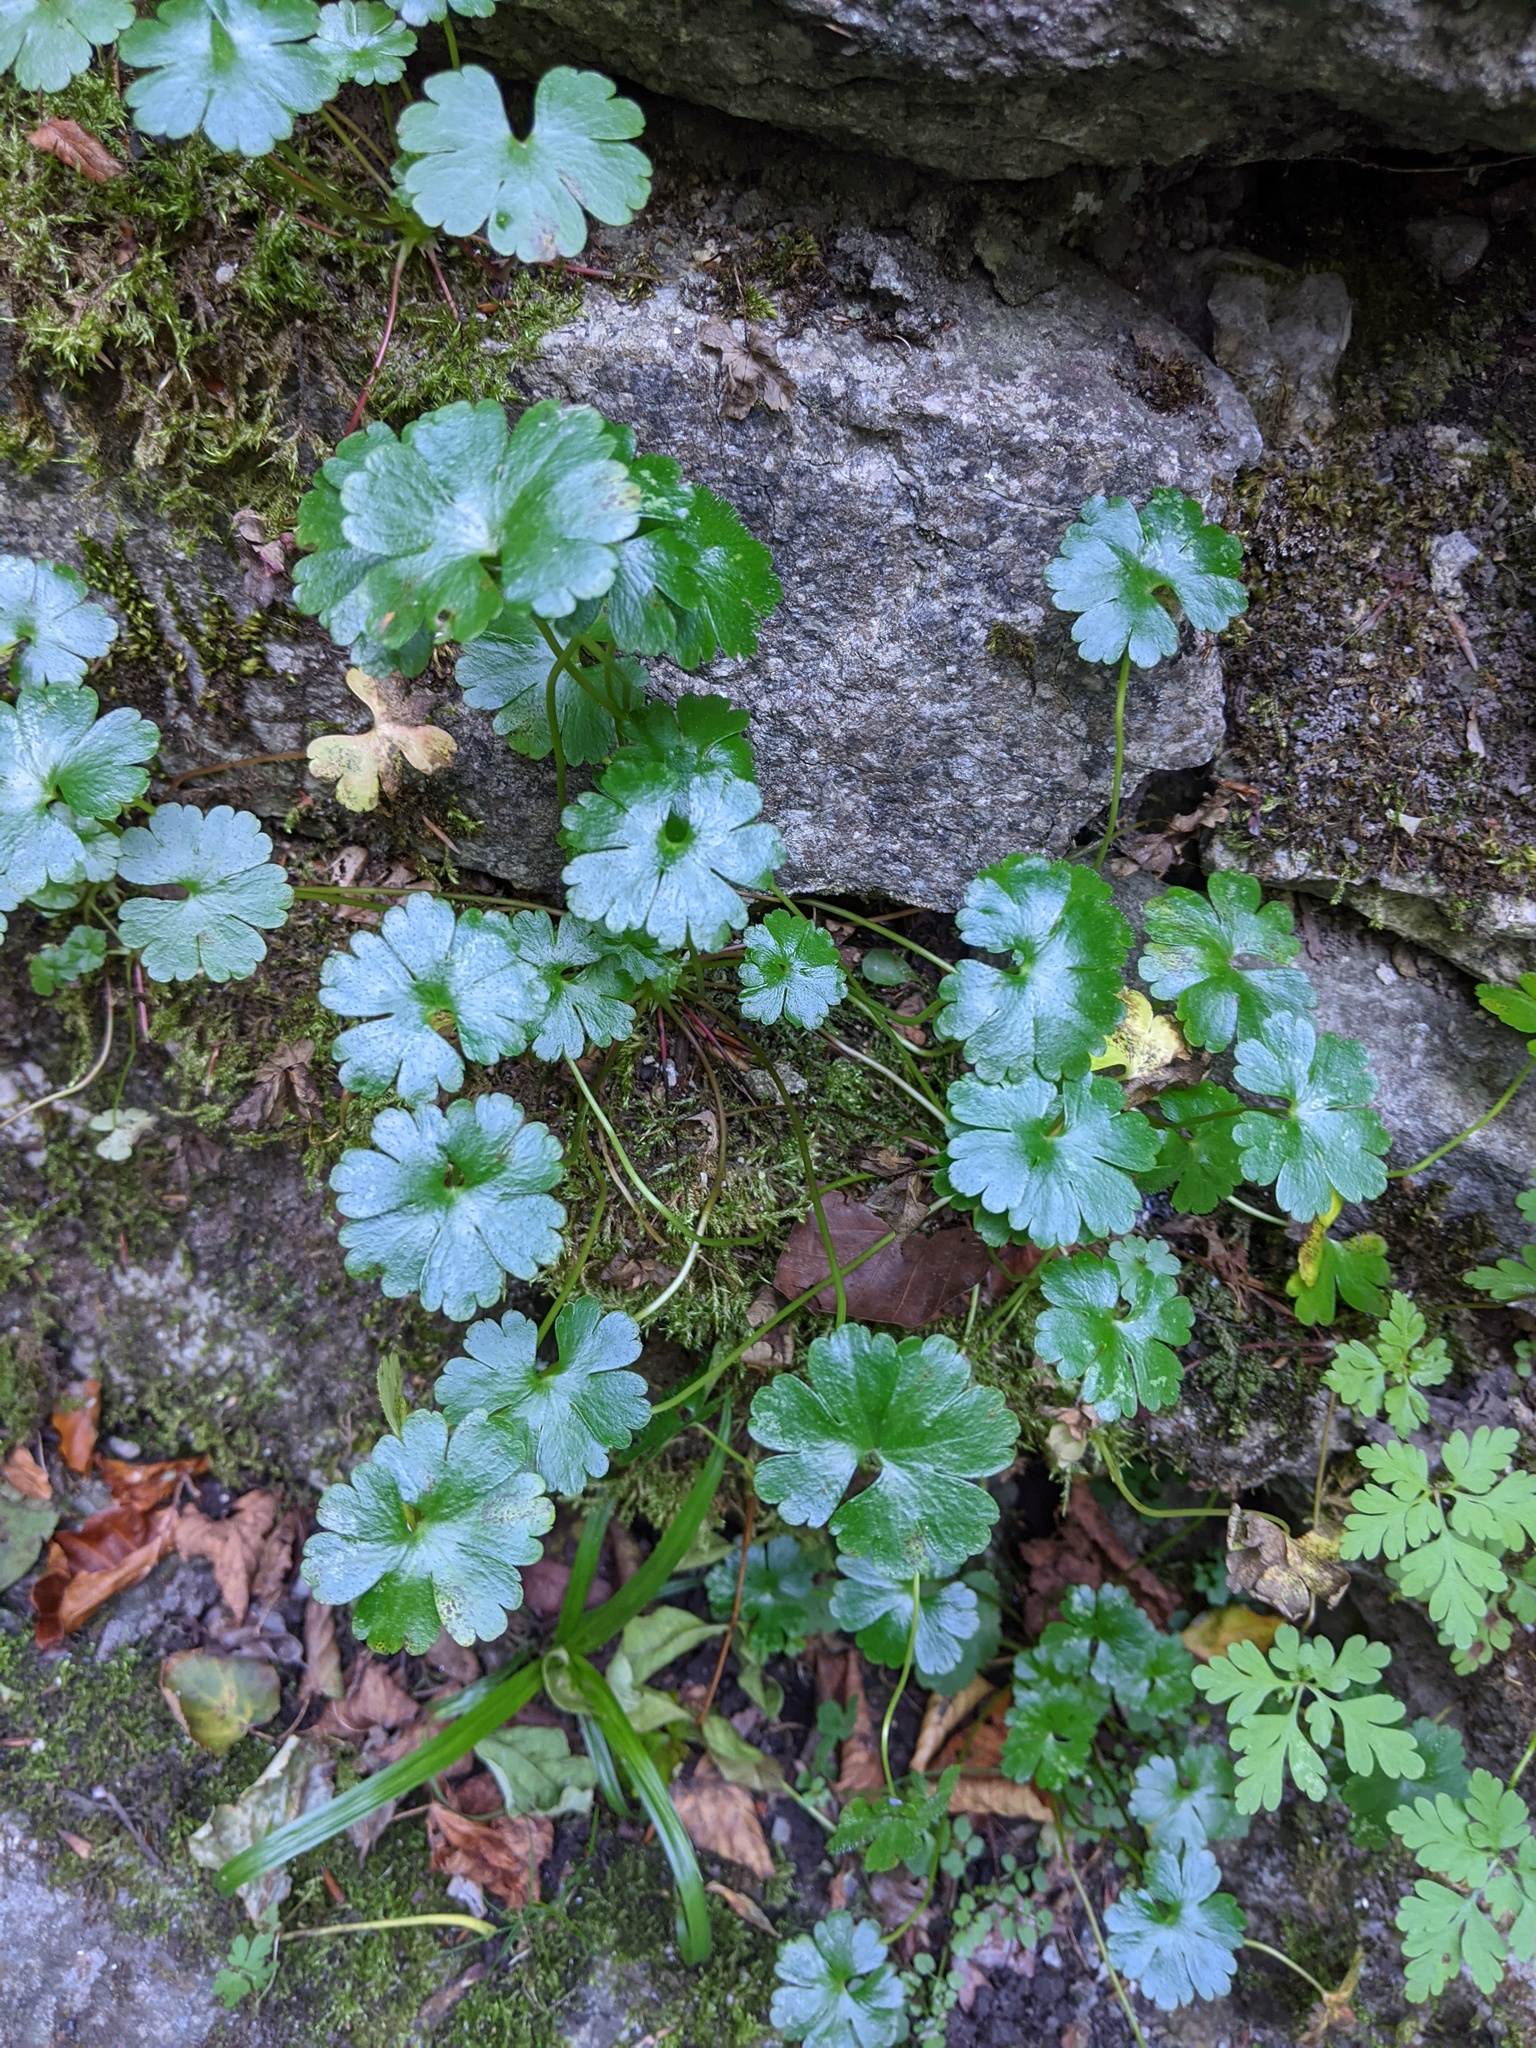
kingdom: Plantae
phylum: Tracheophyta
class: Magnoliopsida
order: Geraniales
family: Geraniaceae
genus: Geranium
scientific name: Geranium lucidum
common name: Shining crane's-bill
